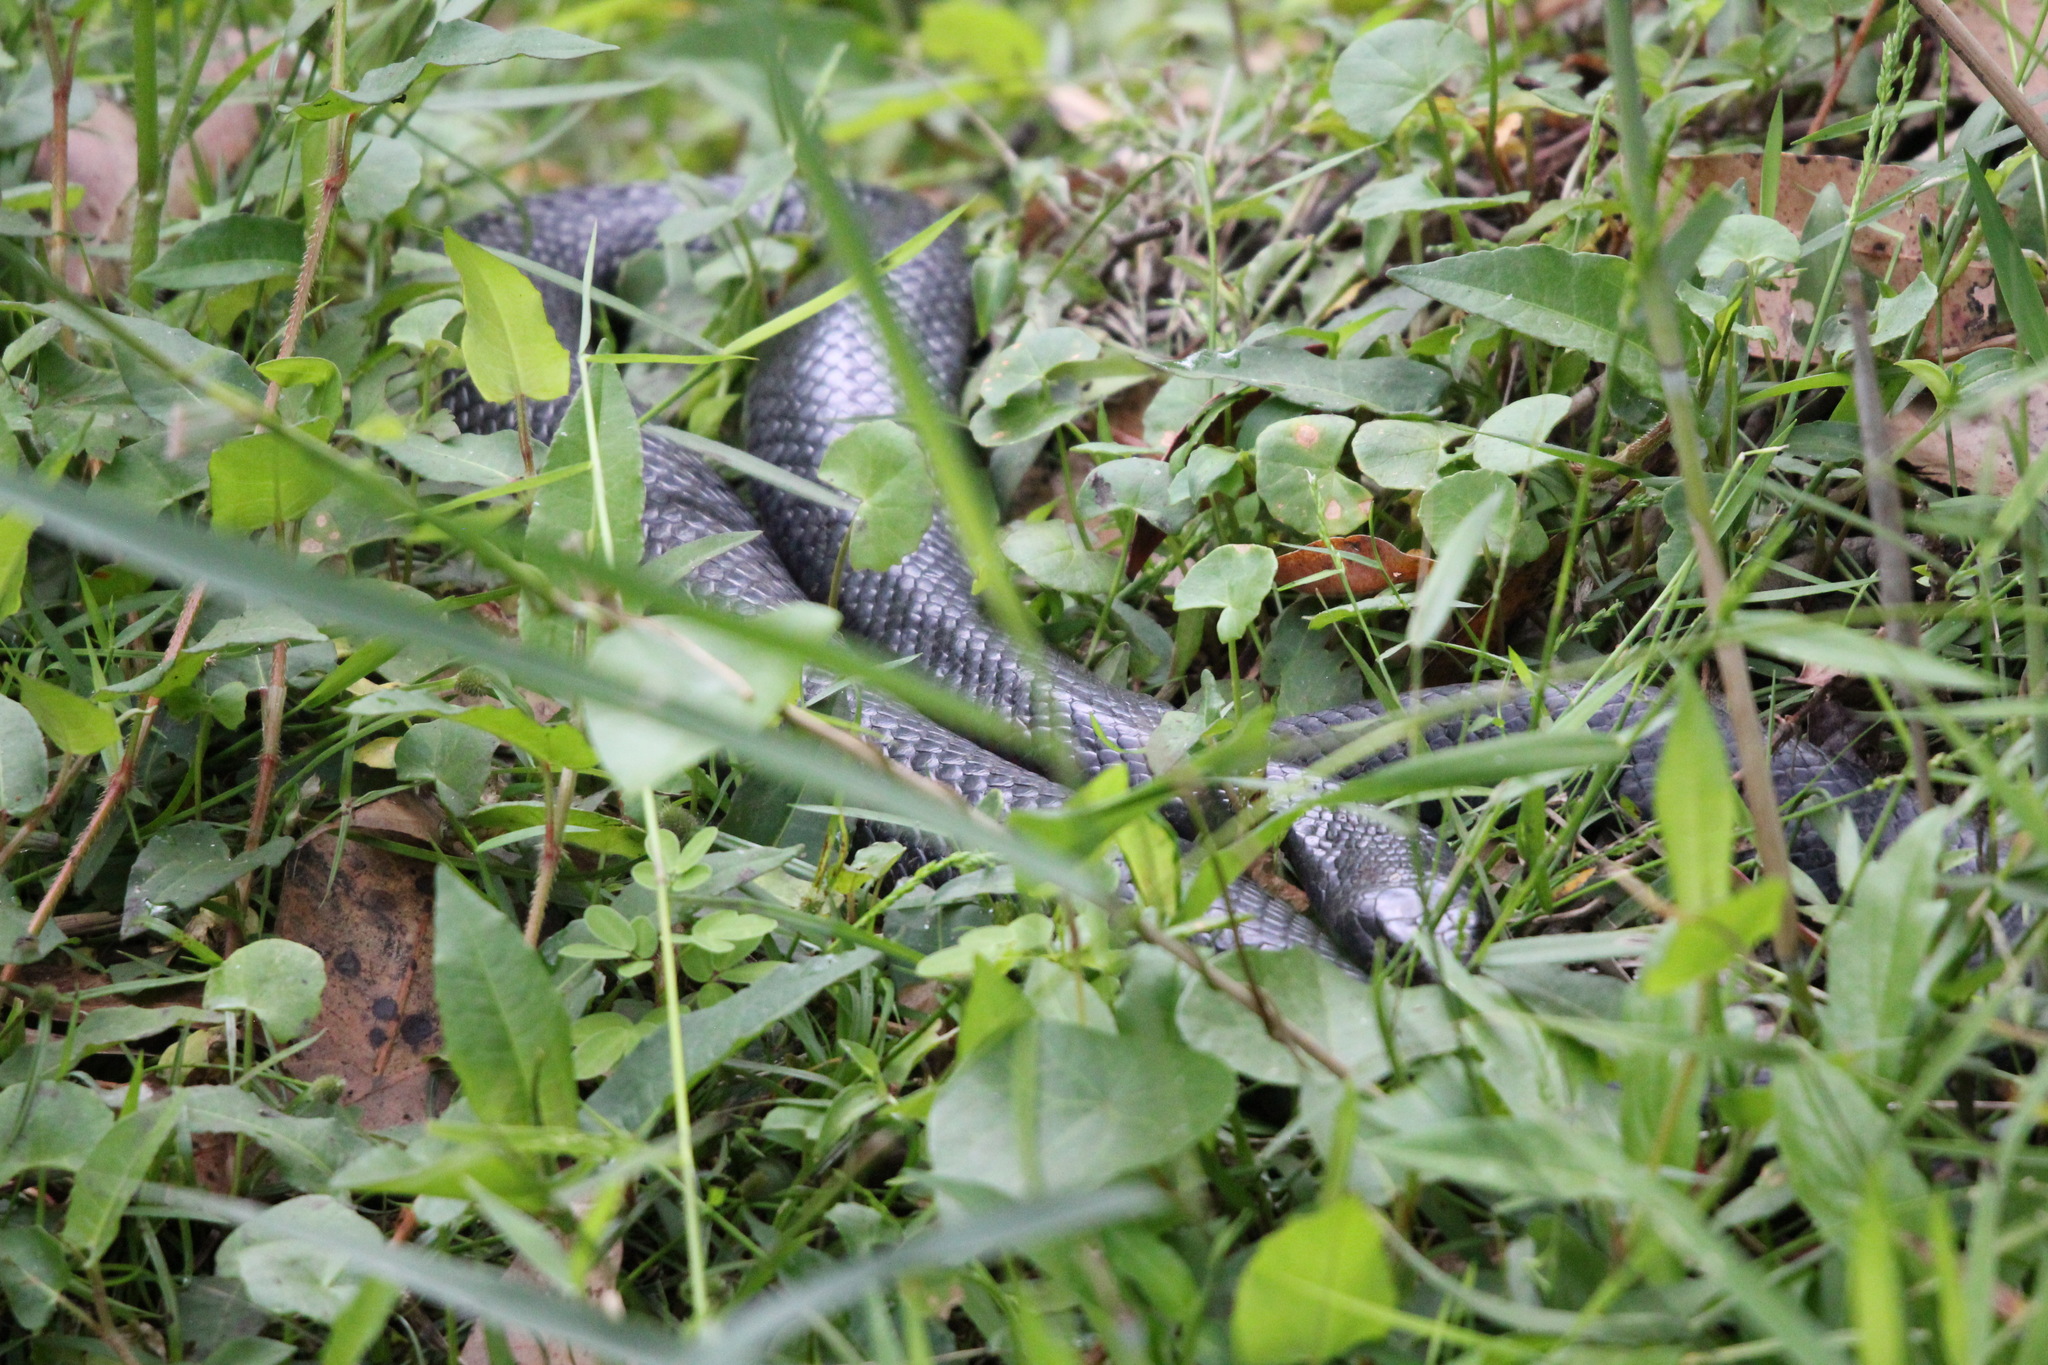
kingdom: Animalia
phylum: Chordata
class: Squamata
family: Elapidae
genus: Pseudechis
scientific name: Pseudechis porphyriacus
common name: Australian black snake
